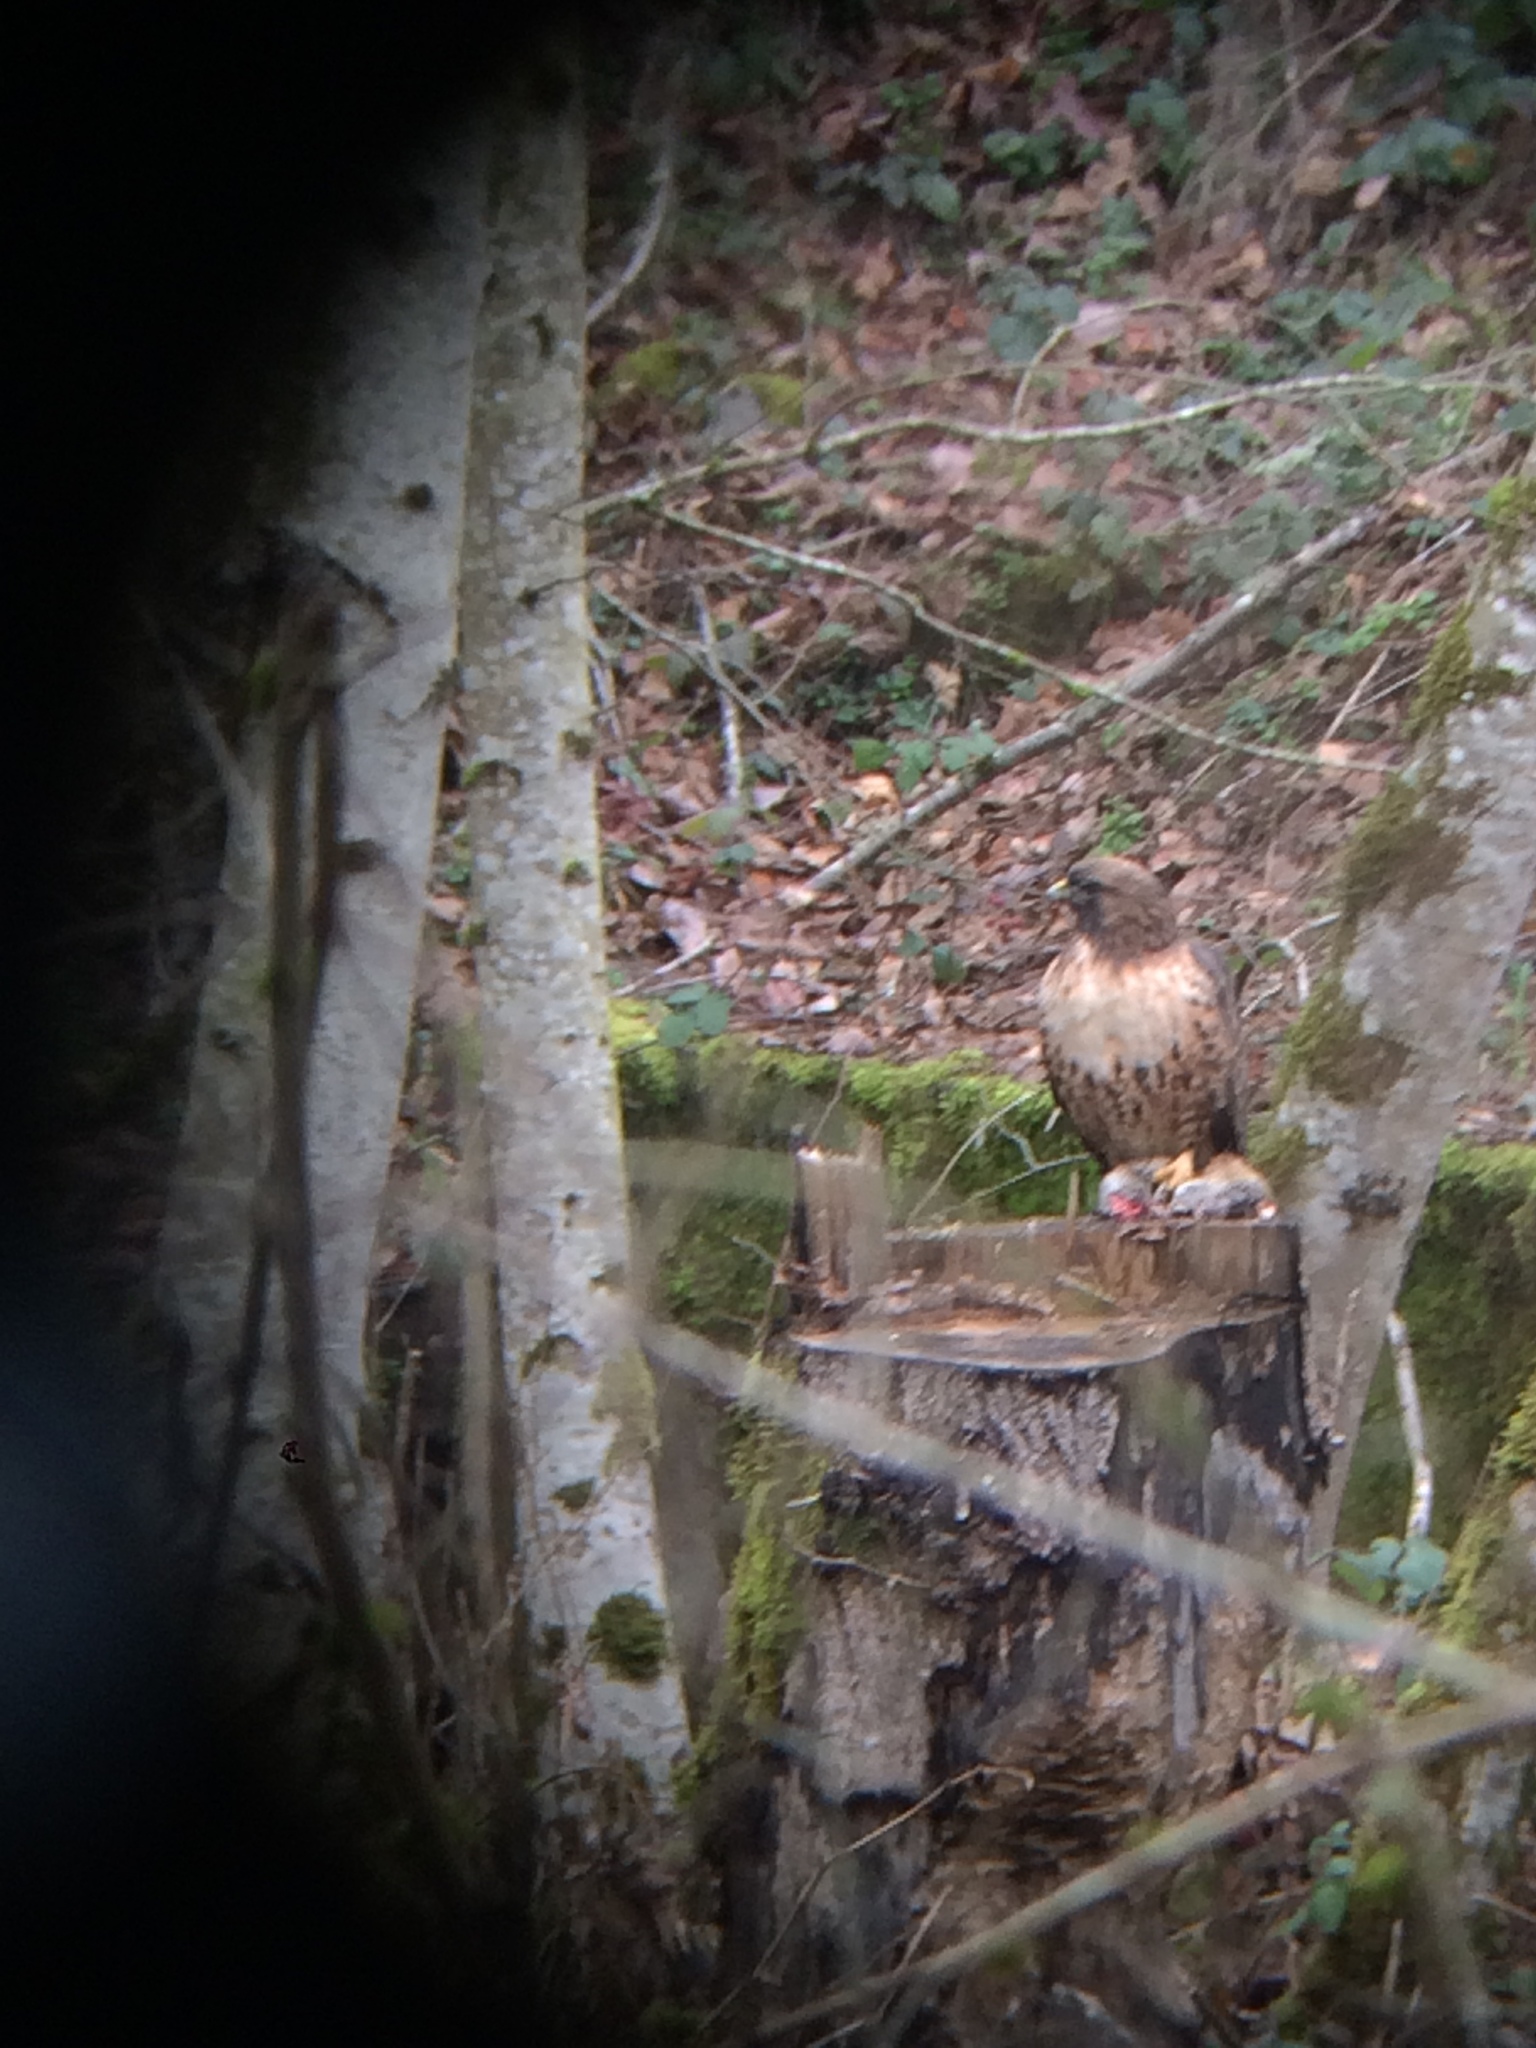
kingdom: Animalia
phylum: Chordata
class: Aves
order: Accipitriformes
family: Accipitridae
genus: Buteo
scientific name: Buteo jamaicensis
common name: Red-tailed hawk
